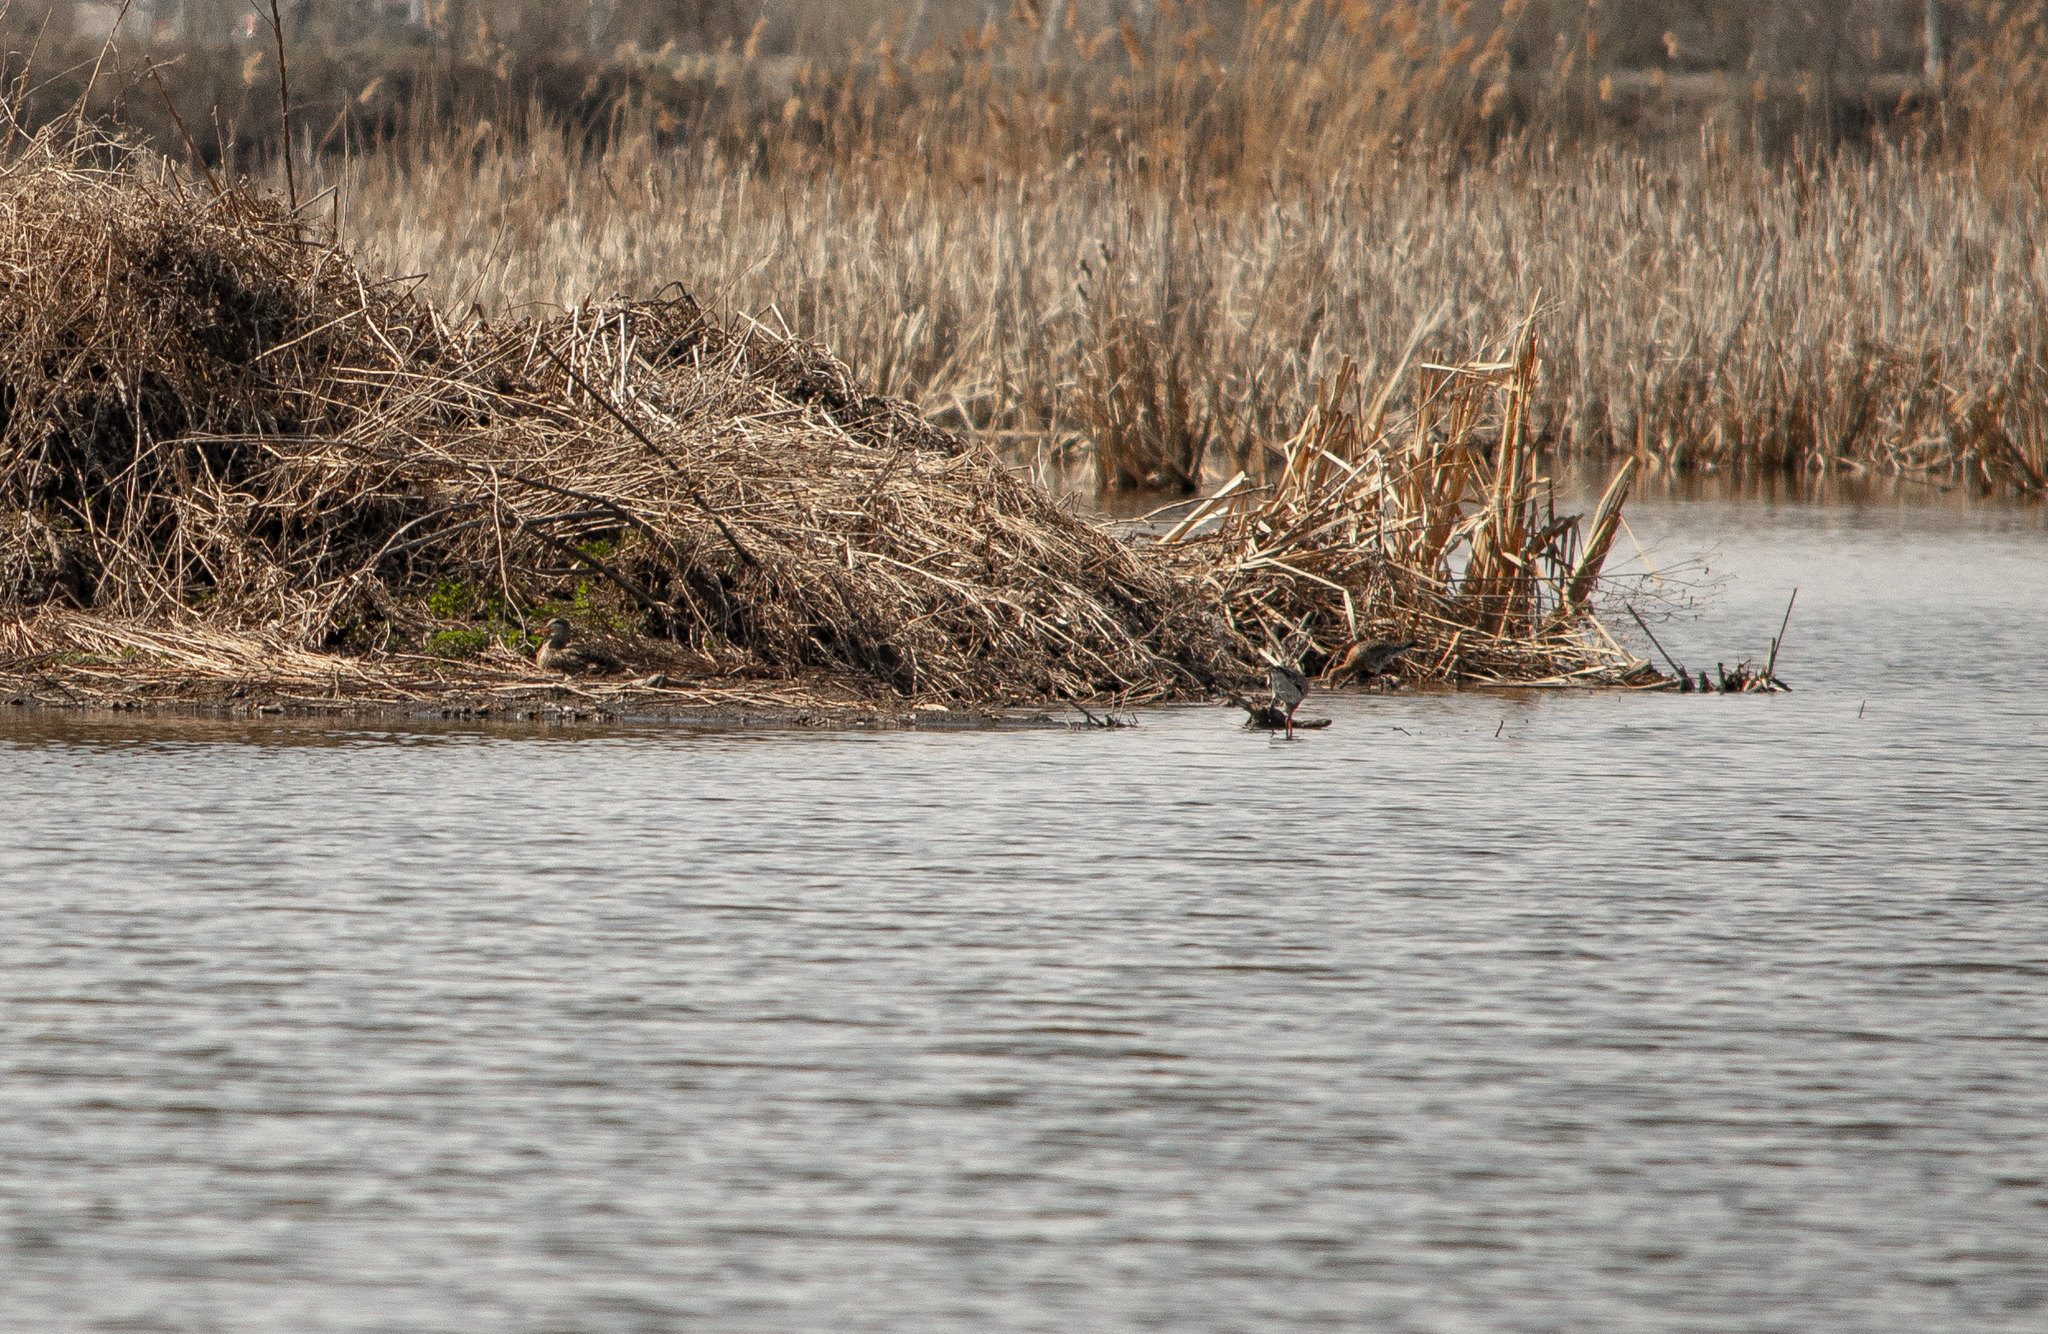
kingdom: Animalia
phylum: Chordata
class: Aves
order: Charadriiformes
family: Scolopacidae
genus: Limosa
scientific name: Limosa limosa
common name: Black-tailed godwit
